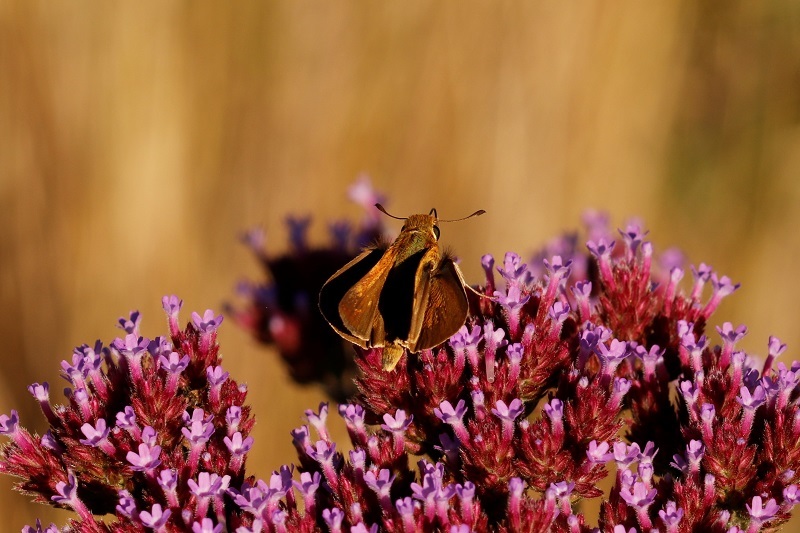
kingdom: Animalia
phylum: Arthropoda
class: Insecta
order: Lepidoptera
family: Hesperiidae
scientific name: Hesperiidae
